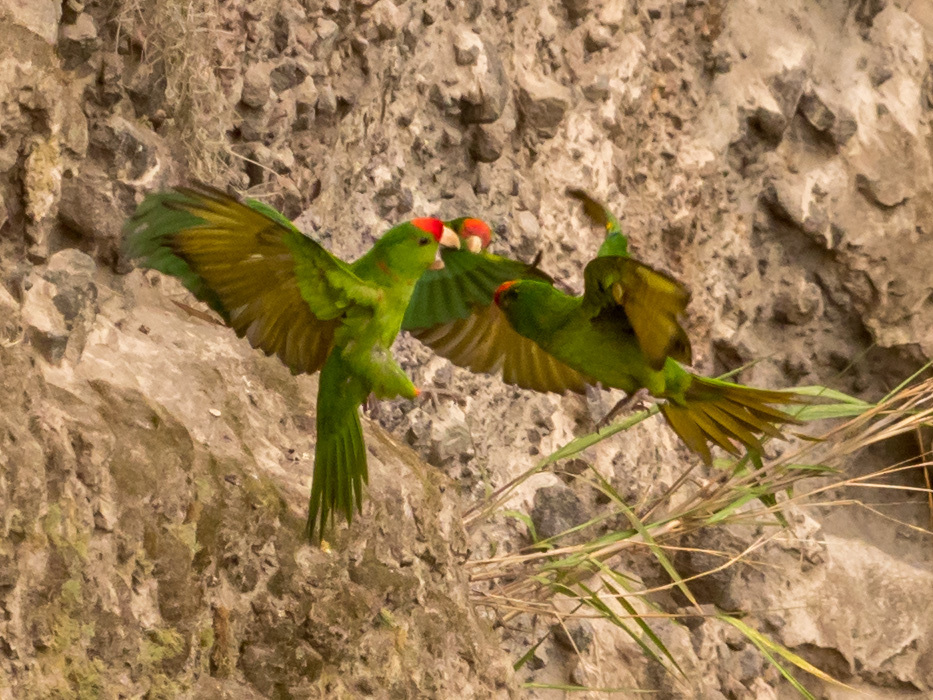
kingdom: Animalia
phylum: Chordata
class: Aves
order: Psittaciformes
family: Psittacidae
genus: Aratinga
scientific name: Aratinga wagleri
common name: Scarlet-fronted parakeet
